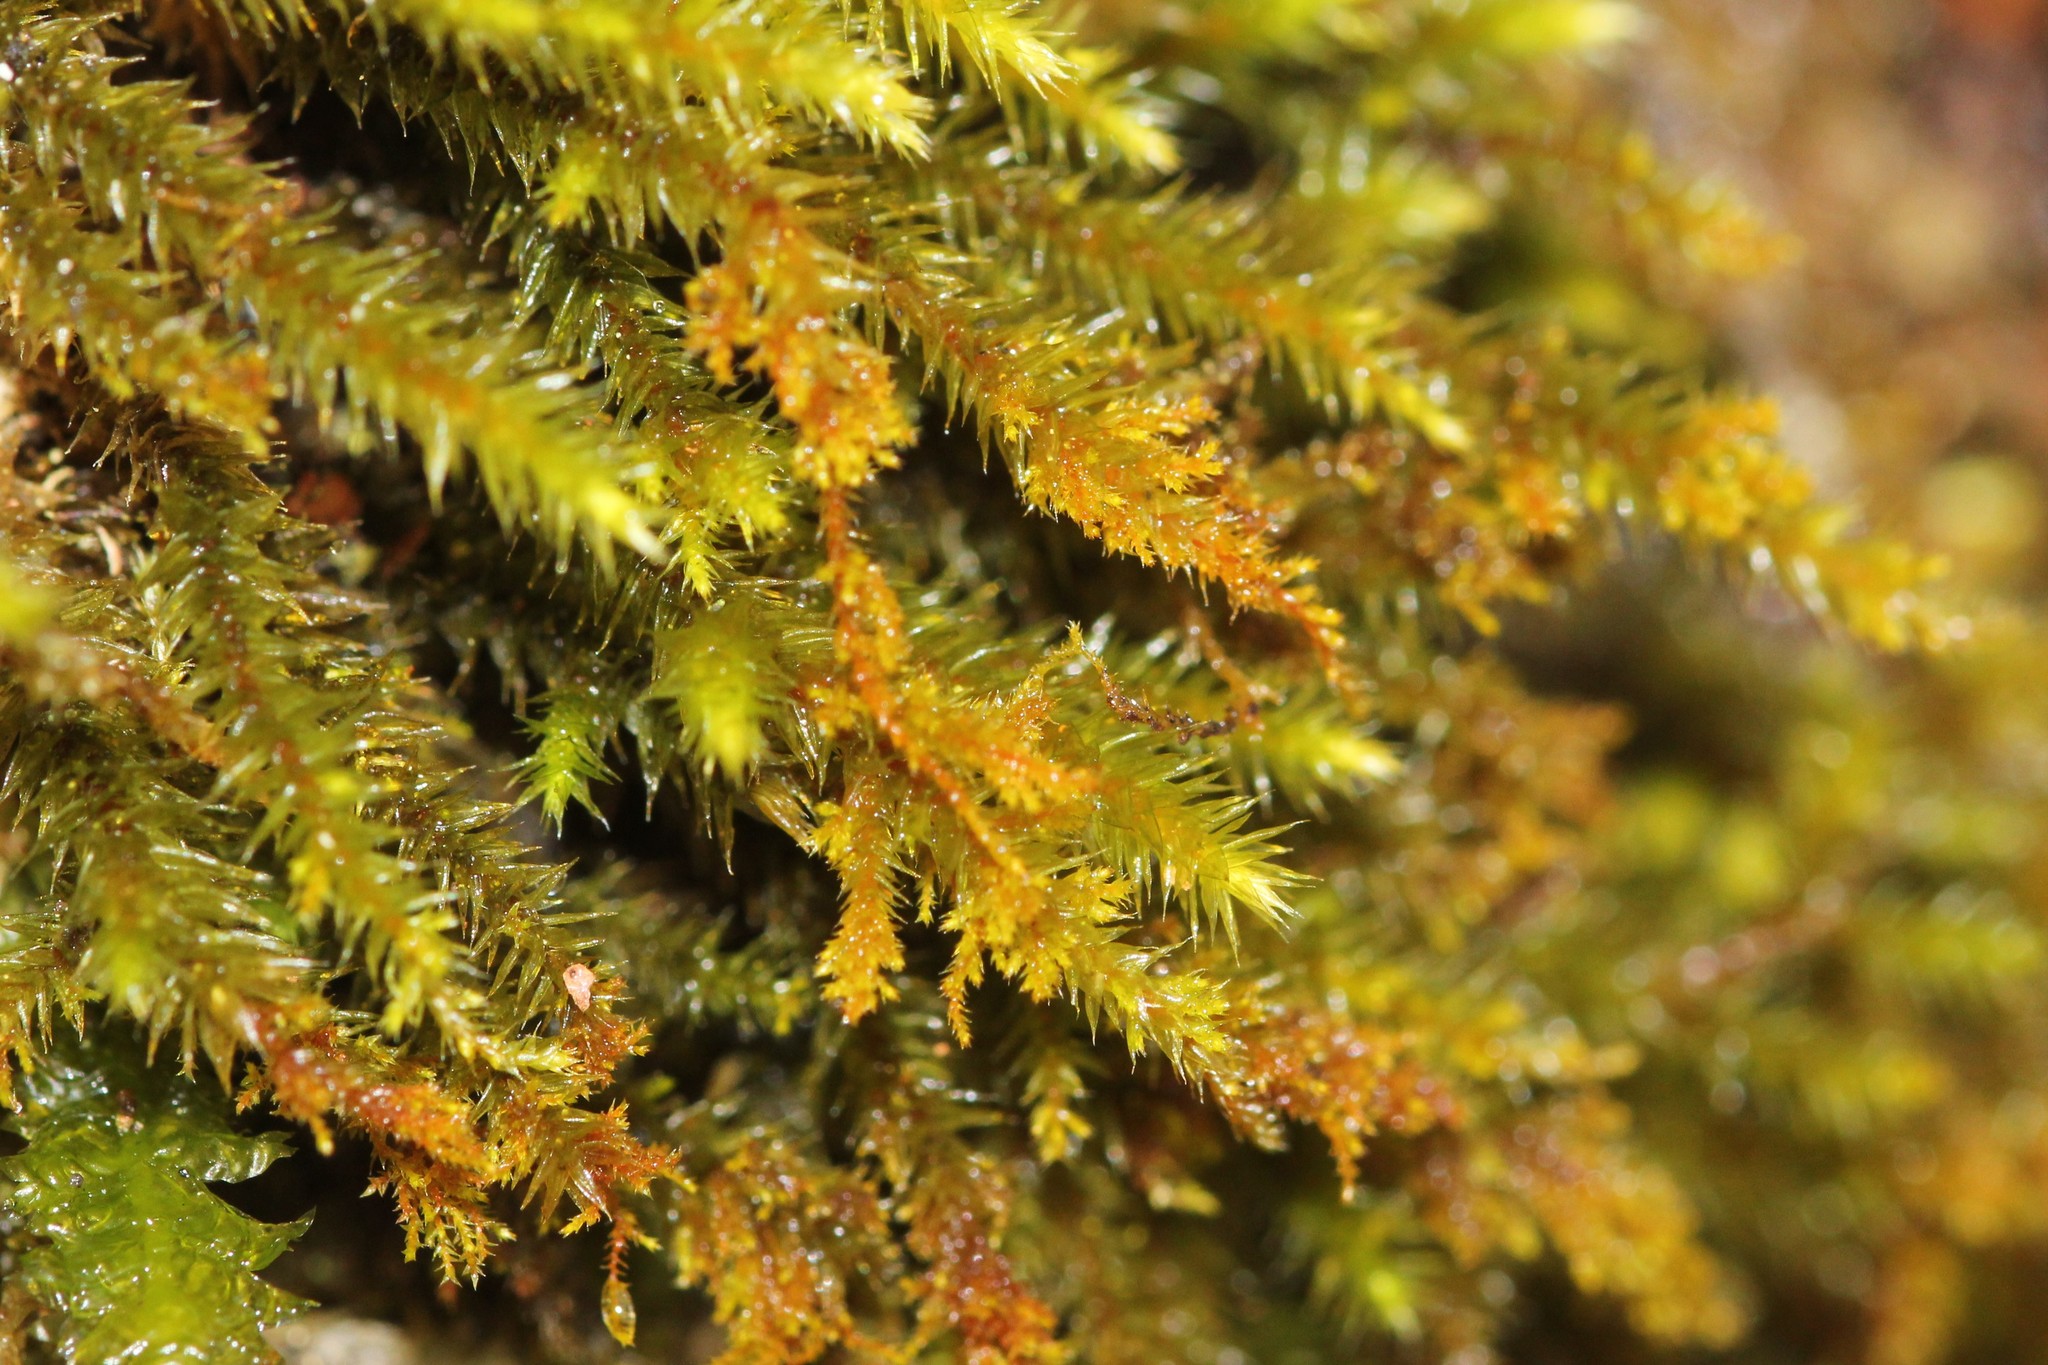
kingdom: Plantae
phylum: Bryophyta
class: Bryopsida
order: Hypnales
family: Leucodontaceae
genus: Leucodon
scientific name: Leucodon sciuroides
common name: Squirrel-tail moss
